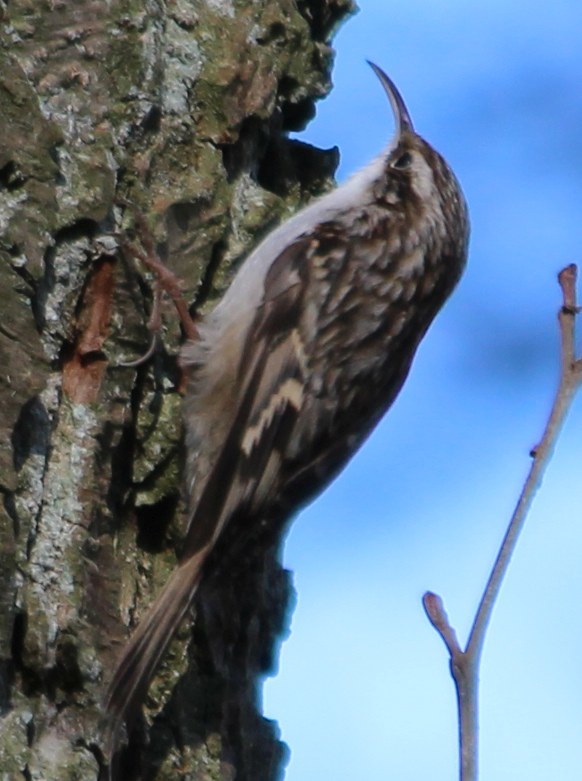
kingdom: Animalia
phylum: Chordata
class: Aves
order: Passeriformes
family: Certhiidae
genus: Certhia
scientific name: Certhia brachydactyla
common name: Short-toed treecreeper
